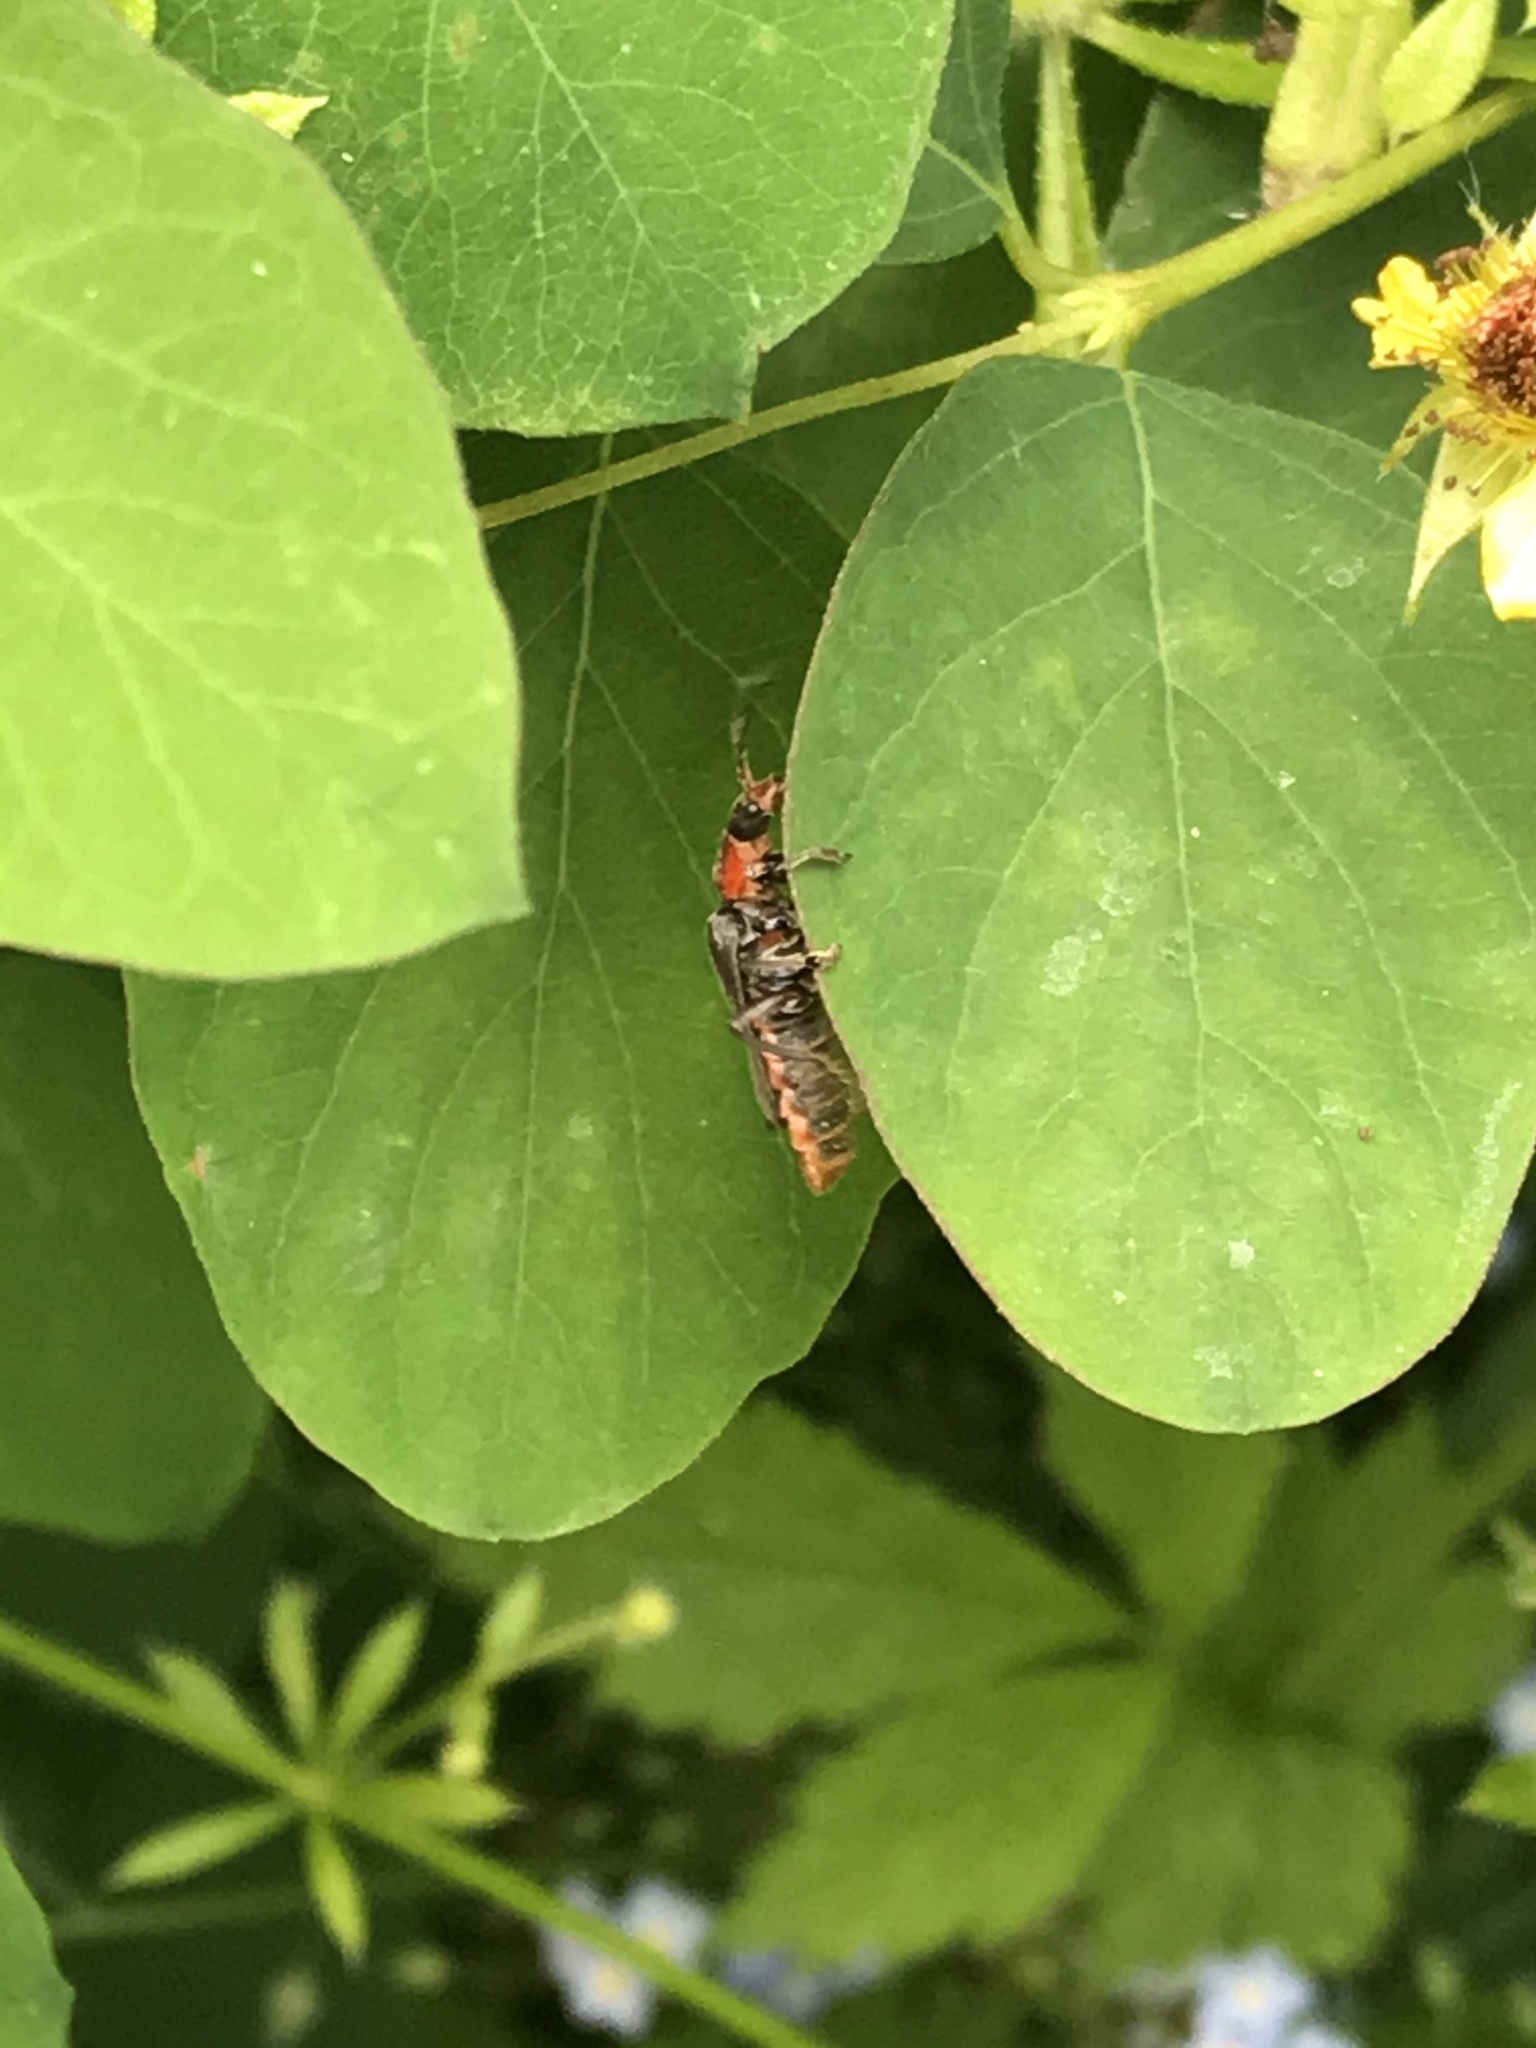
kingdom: Animalia
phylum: Arthropoda
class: Insecta
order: Coleoptera
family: Cantharidae
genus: Cantharis
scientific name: Cantharis rustica
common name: Soldier beetle
